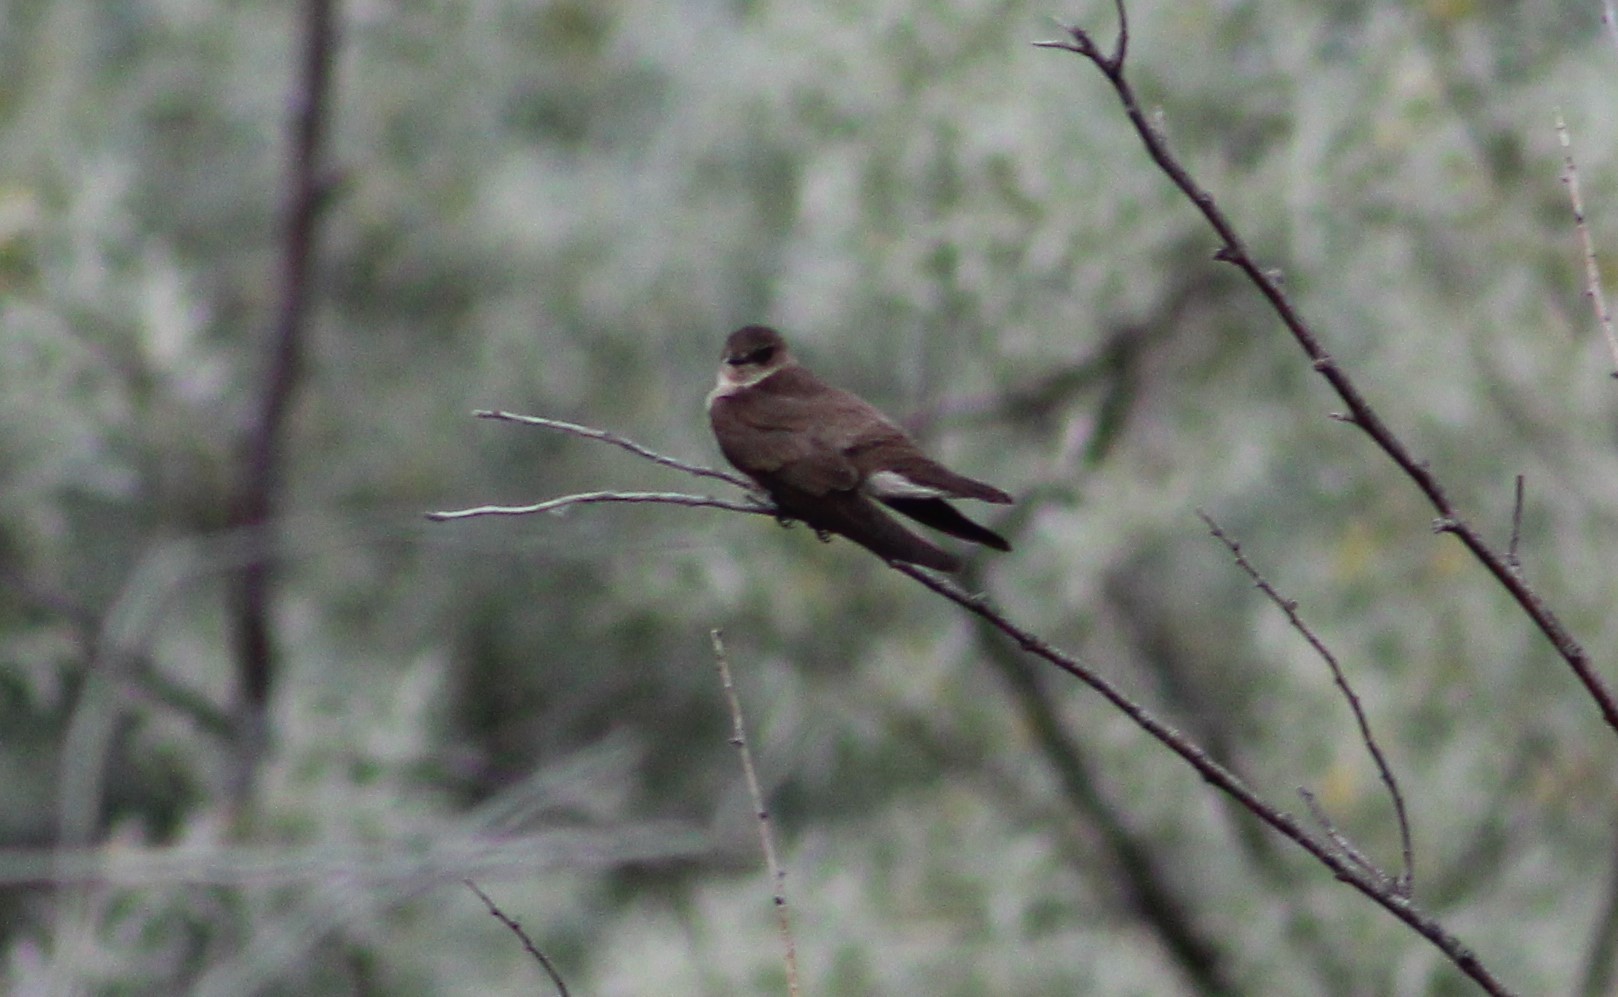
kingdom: Animalia
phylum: Chordata
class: Aves
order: Passeriformes
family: Hirundinidae
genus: Riparia
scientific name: Riparia riparia
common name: Sand martin
